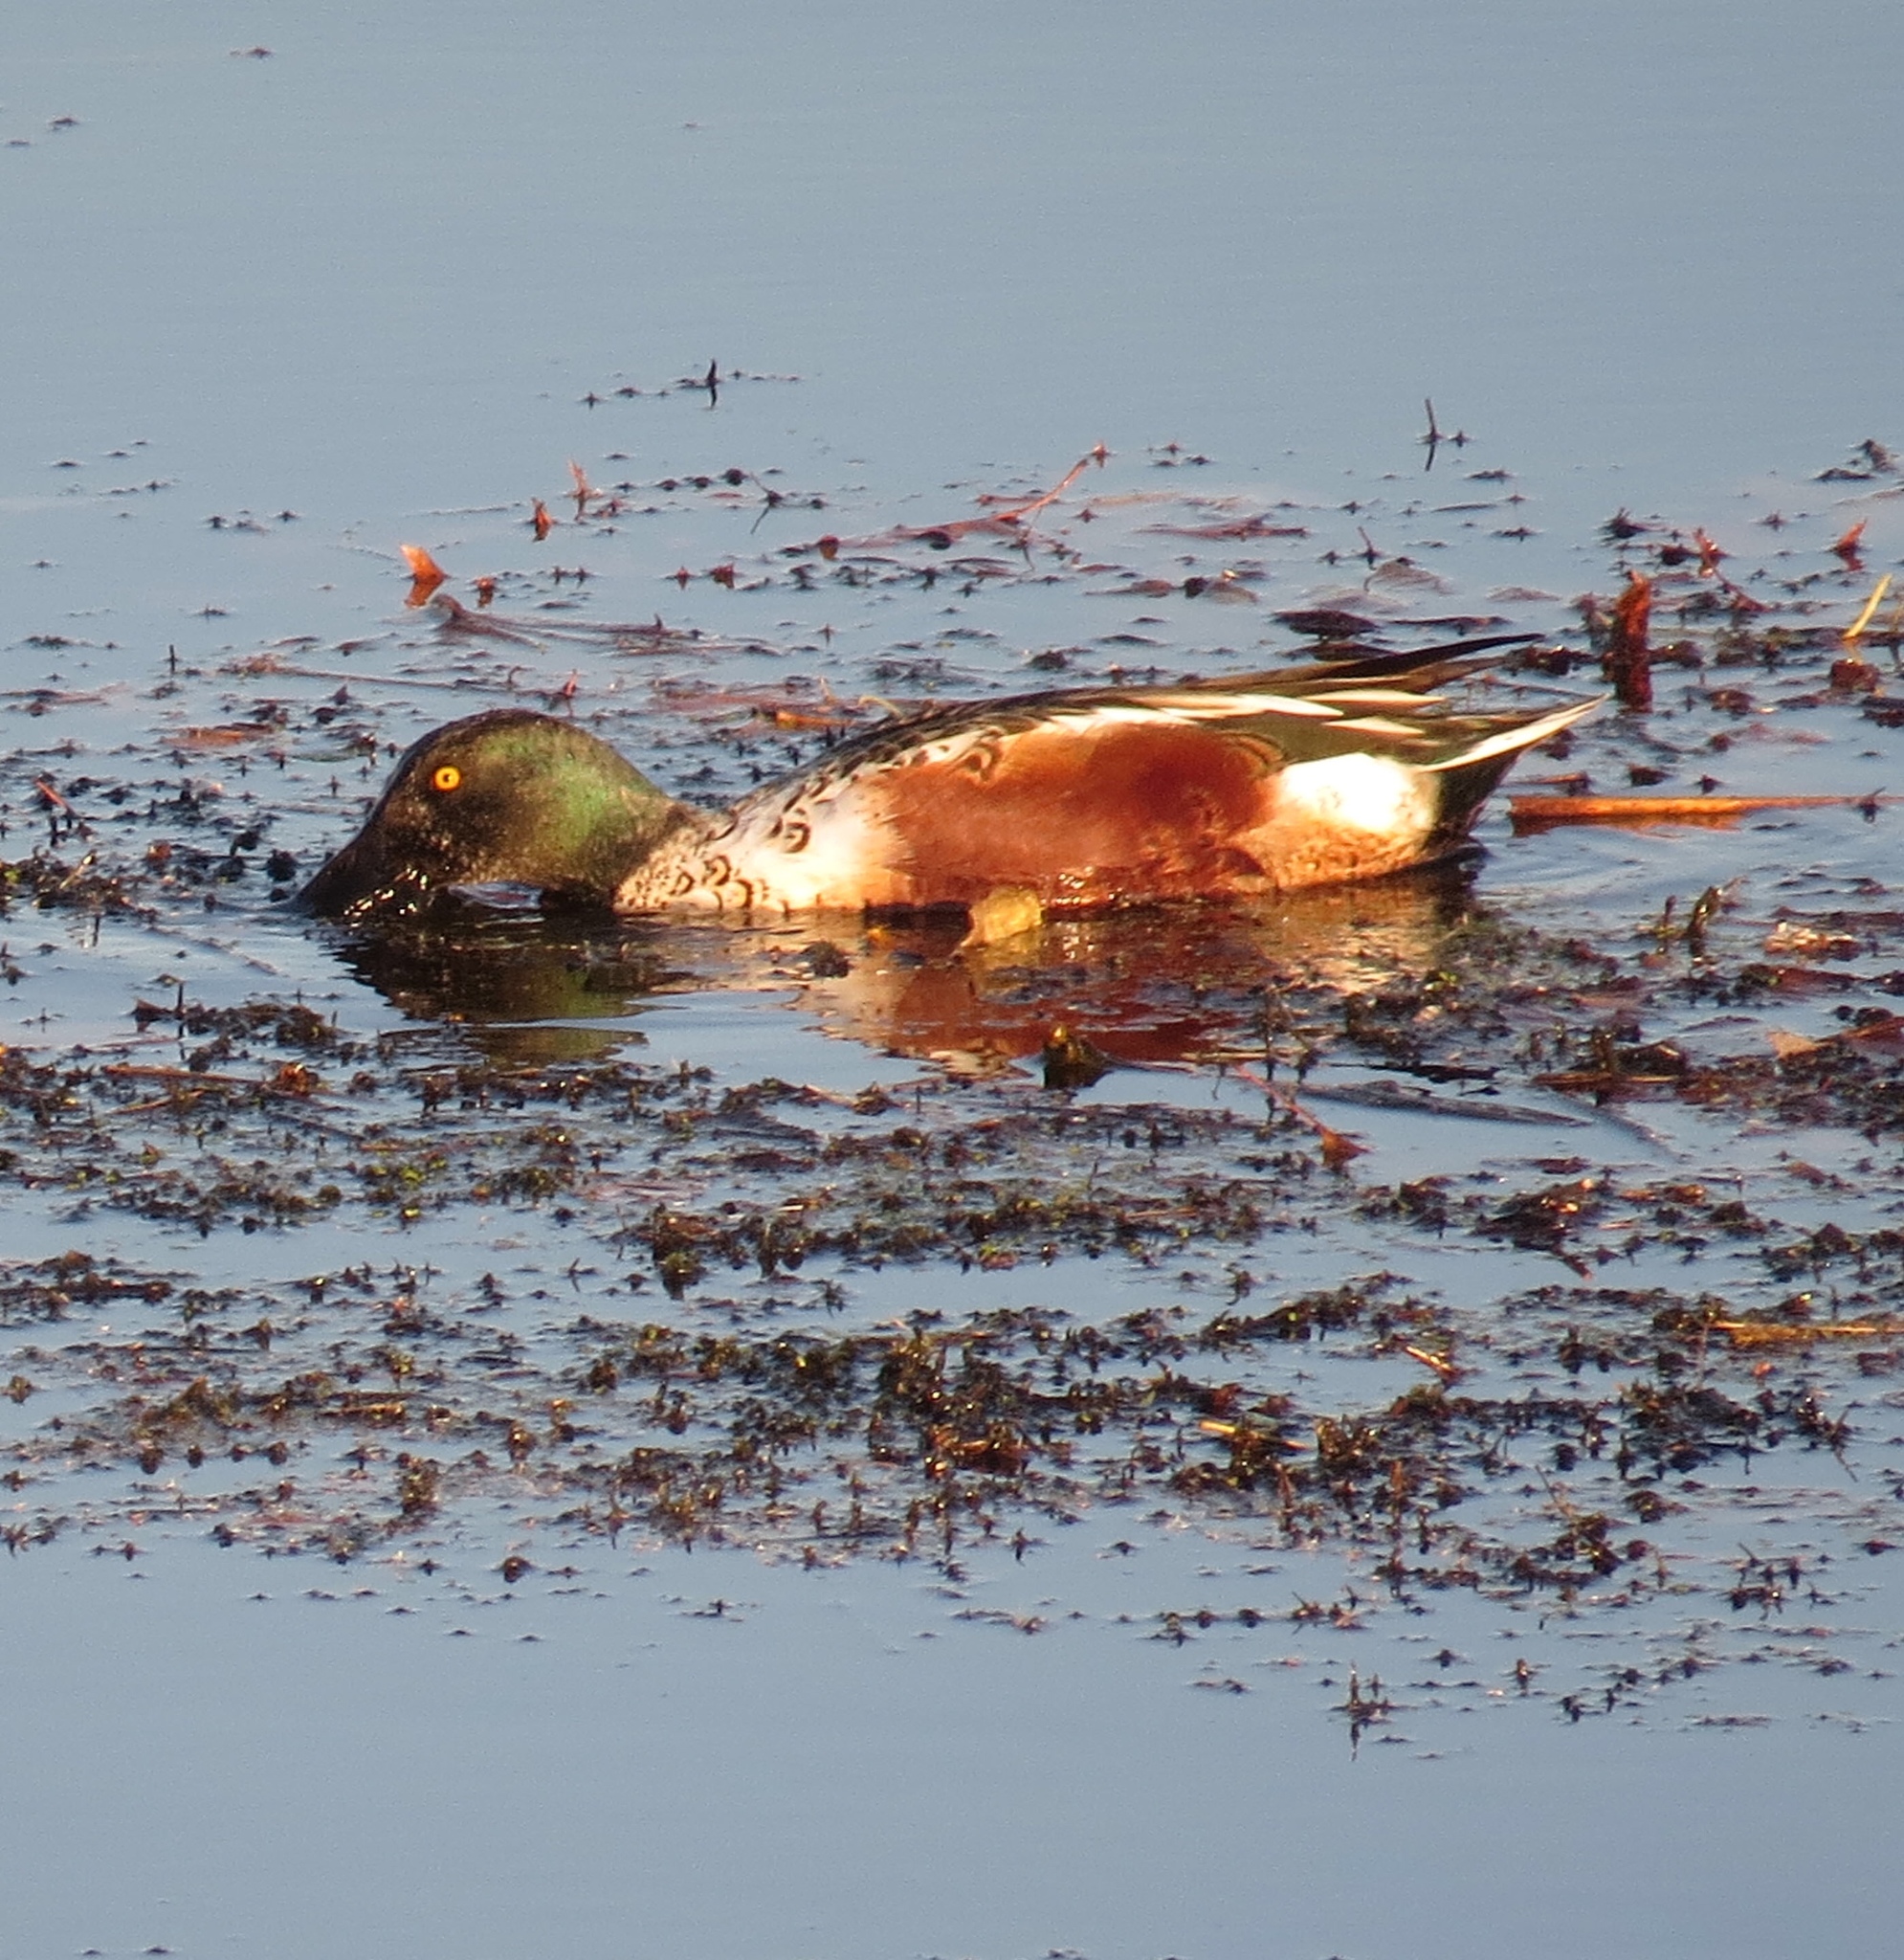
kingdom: Animalia
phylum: Chordata
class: Aves
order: Anseriformes
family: Anatidae
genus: Spatula
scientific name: Spatula clypeata
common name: Northern shoveler
